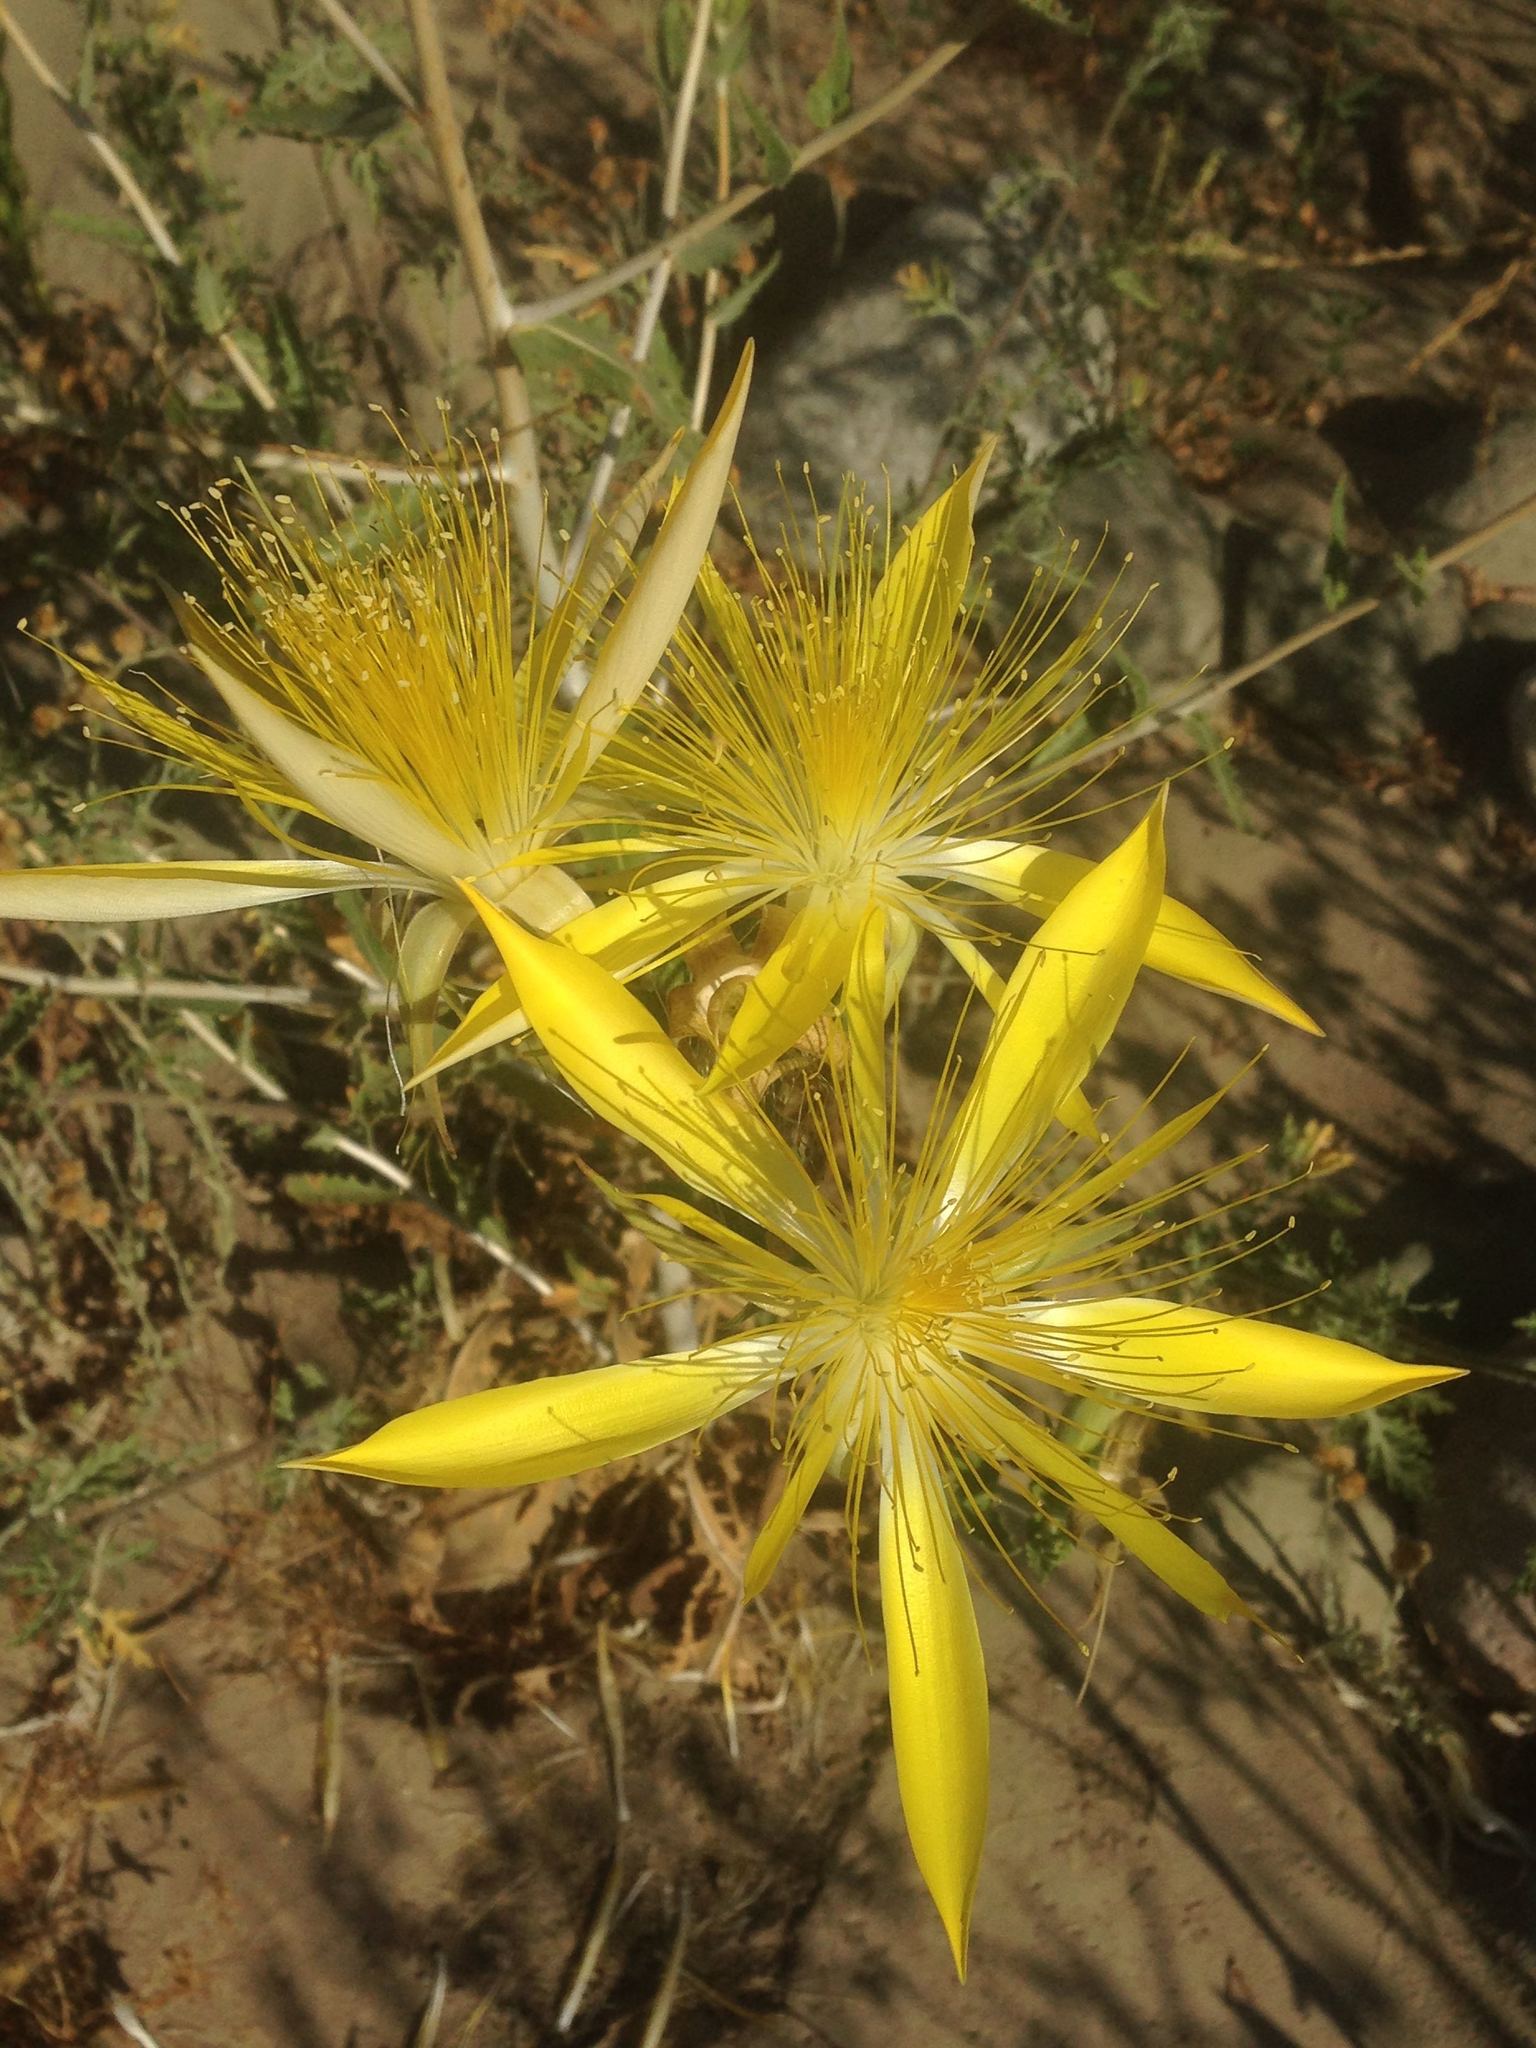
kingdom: Plantae
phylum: Tracheophyta
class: Magnoliopsida
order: Cornales
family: Loasaceae
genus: Mentzelia
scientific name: Mentzelia laevicaulis
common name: Smooth-stem blazingstar
